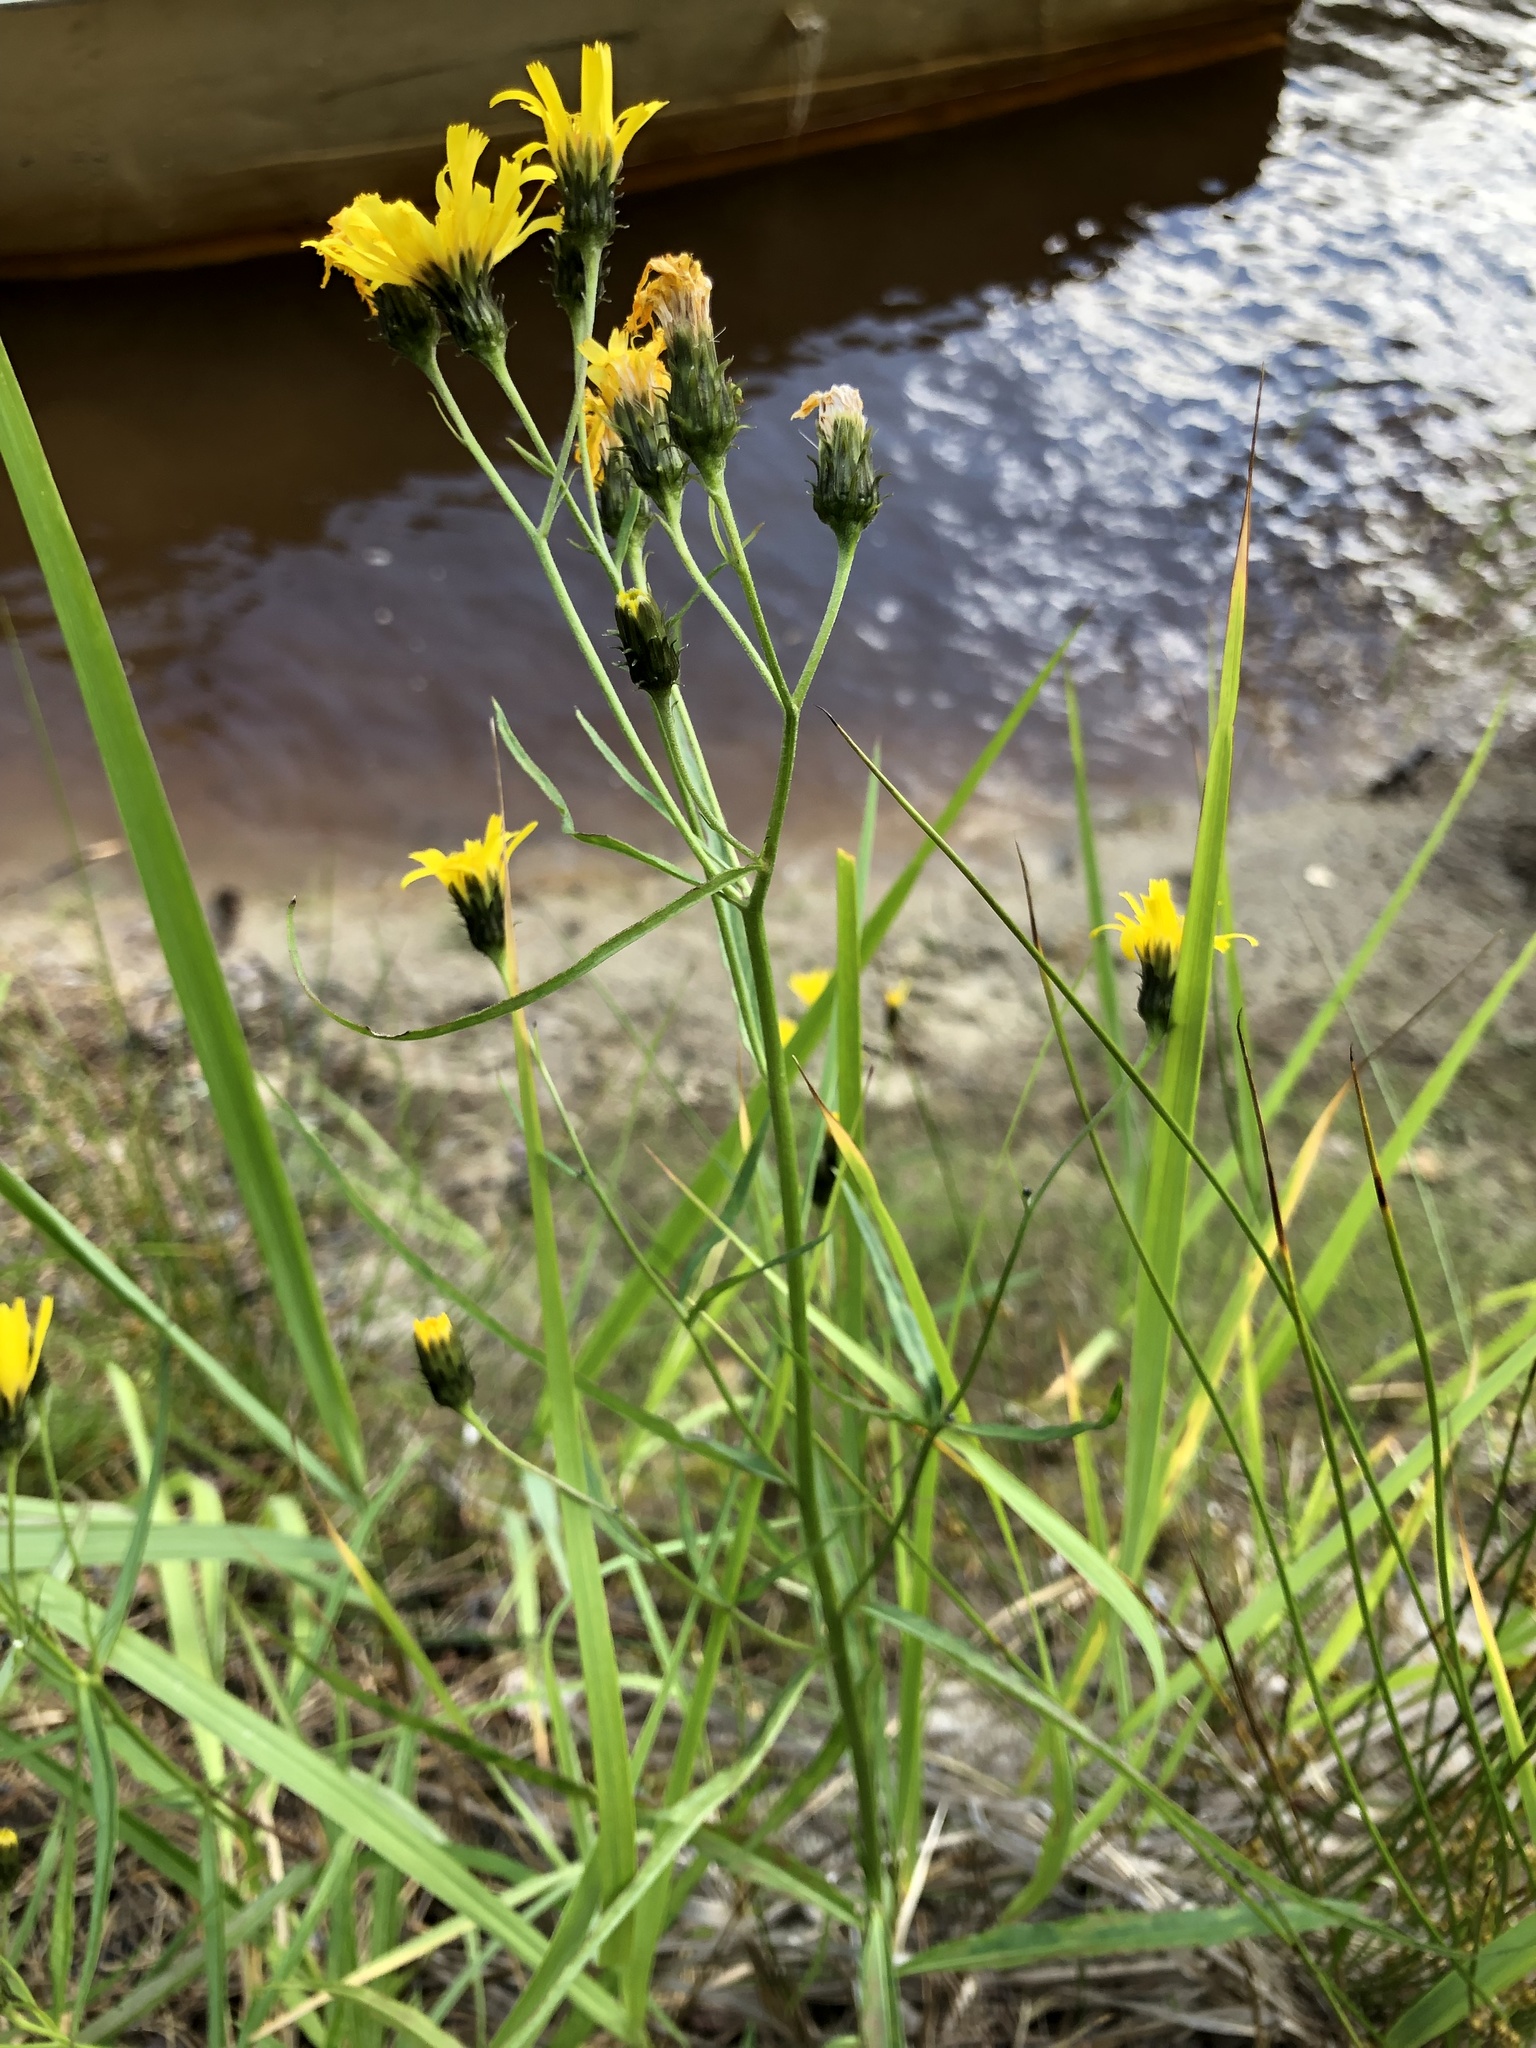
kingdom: Plantae
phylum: Tracheophyta
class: Magnoliopsida
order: Asterales
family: Asteraceae
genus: Hieracium
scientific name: Hieracium umbellatum
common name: Northern hawkweed
